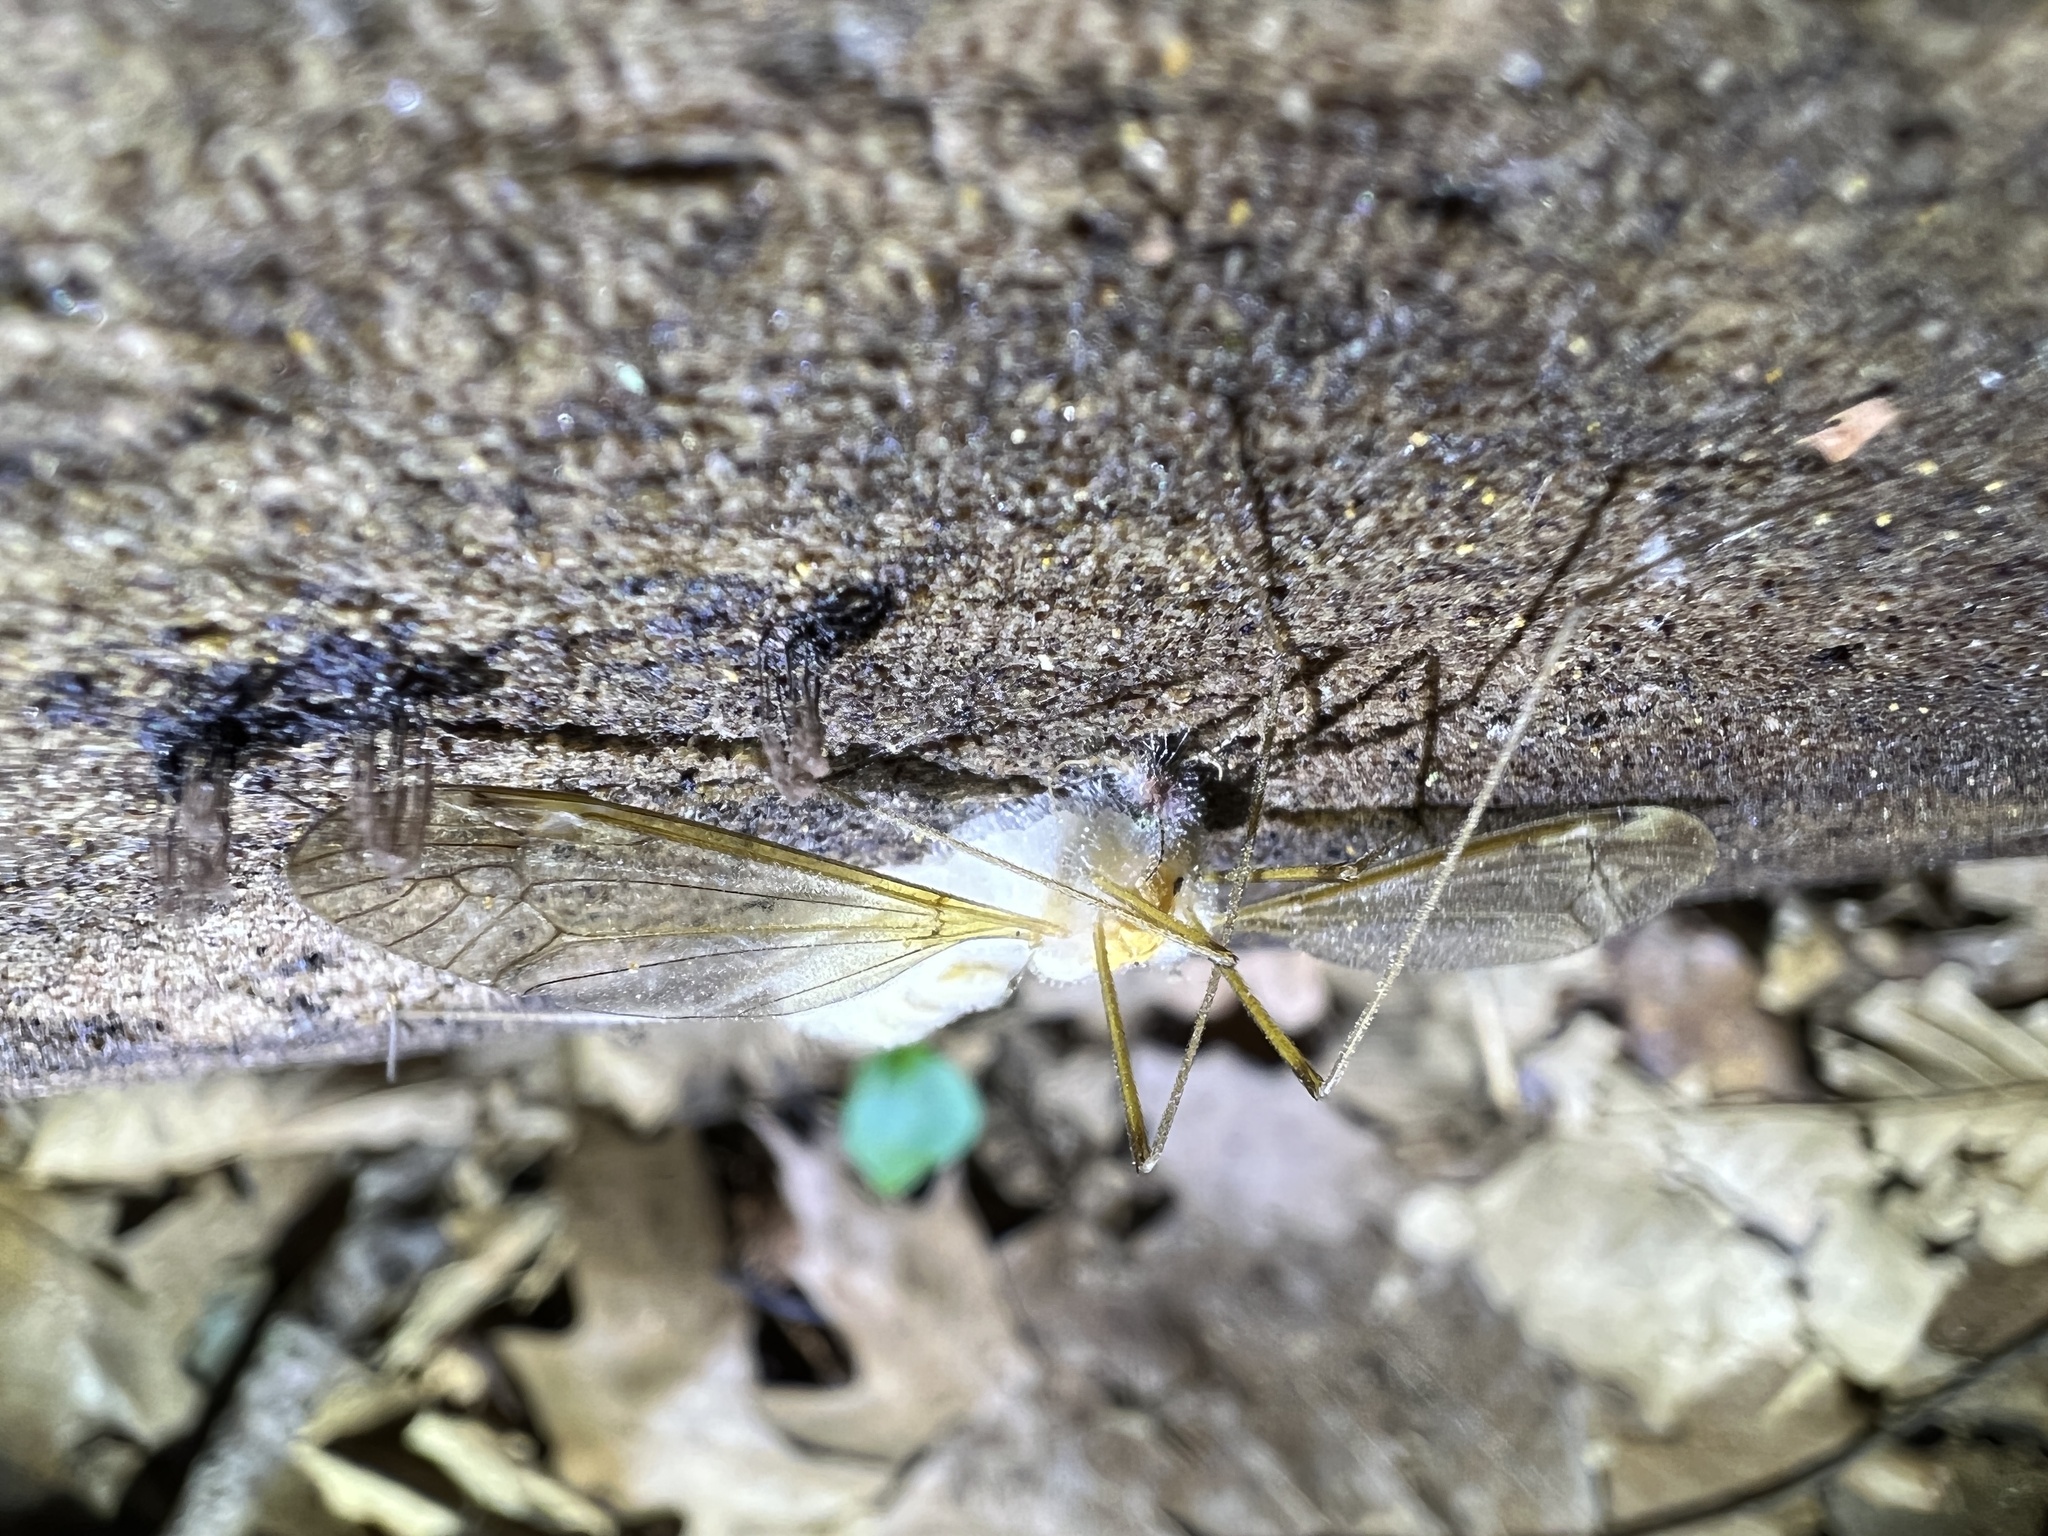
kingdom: Fungi
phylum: Entomophthoromycota
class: Entomophthoromycetes
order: Entomophthorales
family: Entomophthoraceae
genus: Erynia
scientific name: Erynia sepulchralis
